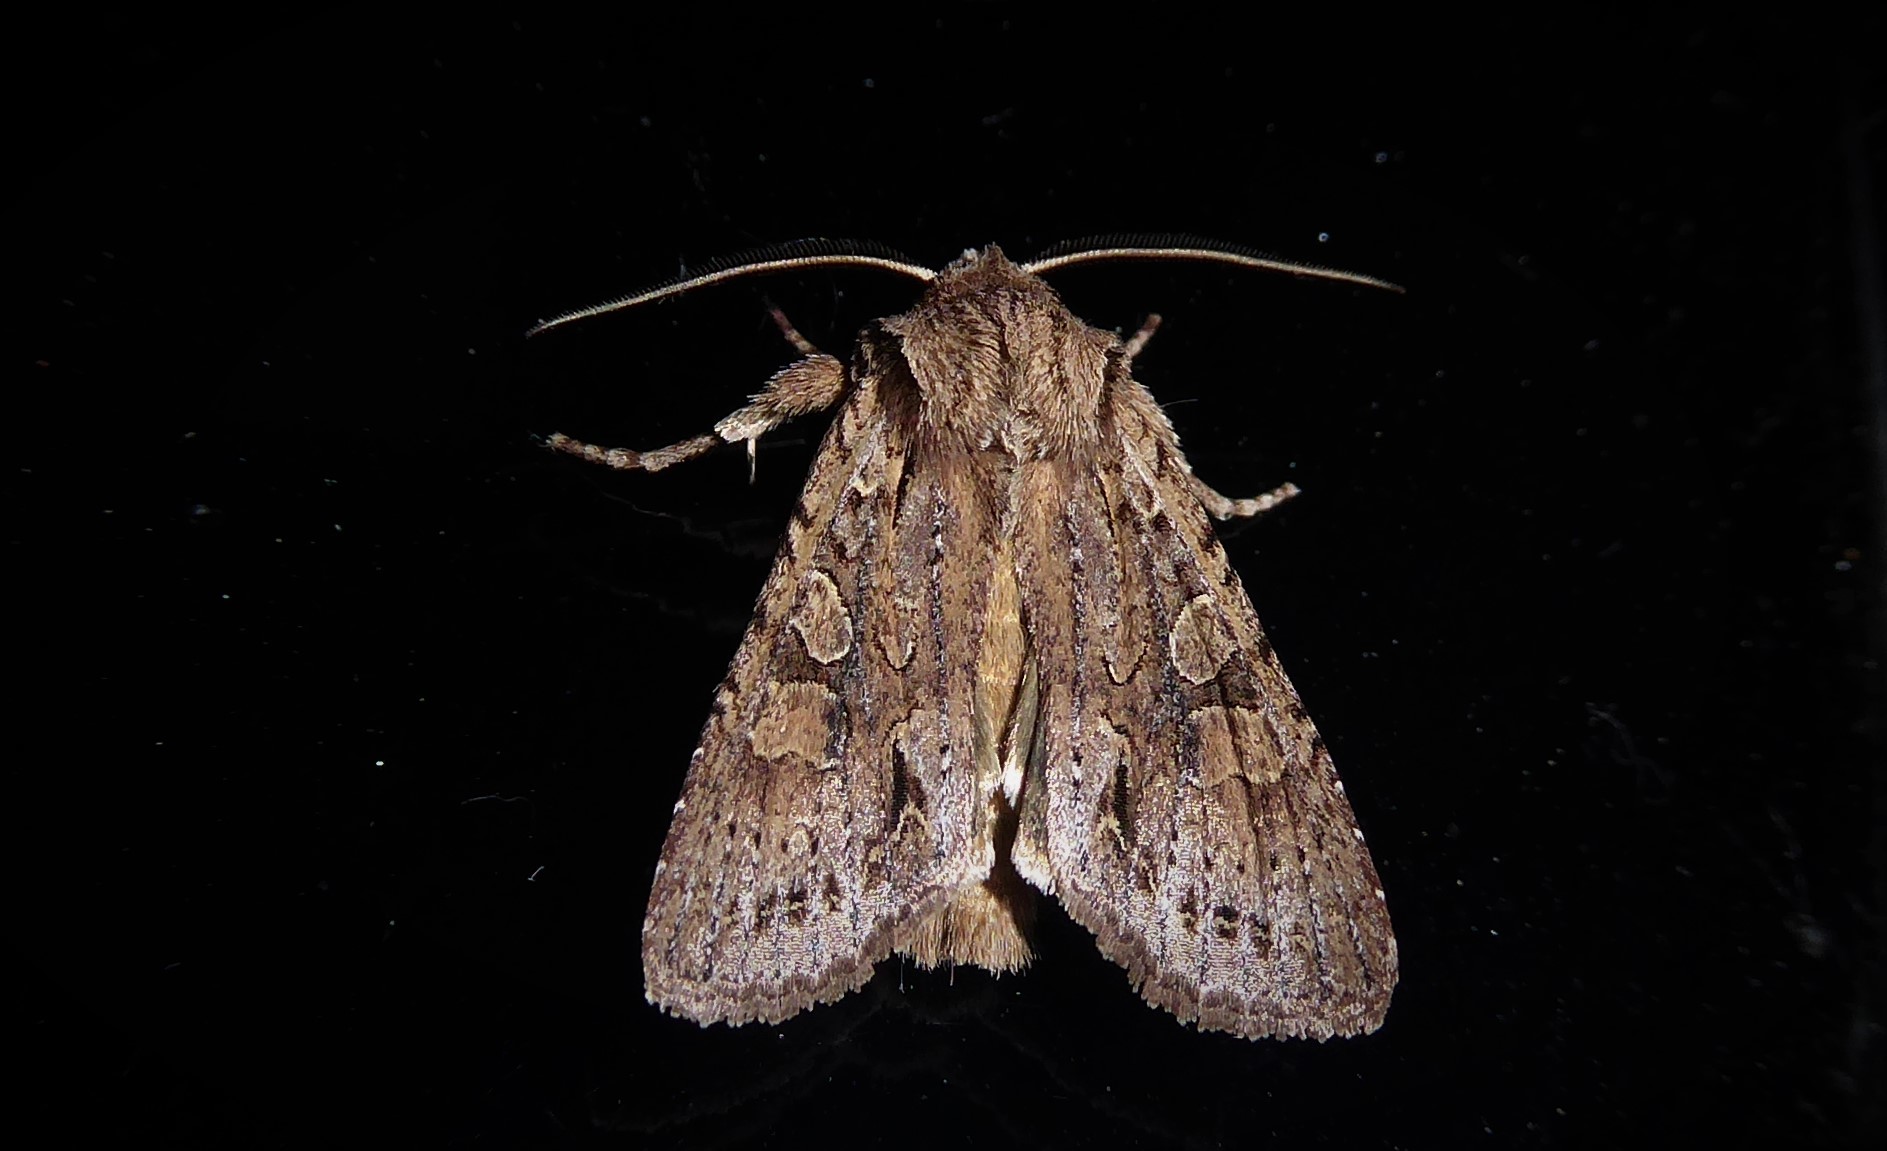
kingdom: Animalia
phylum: Arthropoda
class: Insecta
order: Lepidoptera
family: Noctuidae
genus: Ichneutica
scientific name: Ichneutica mutans
